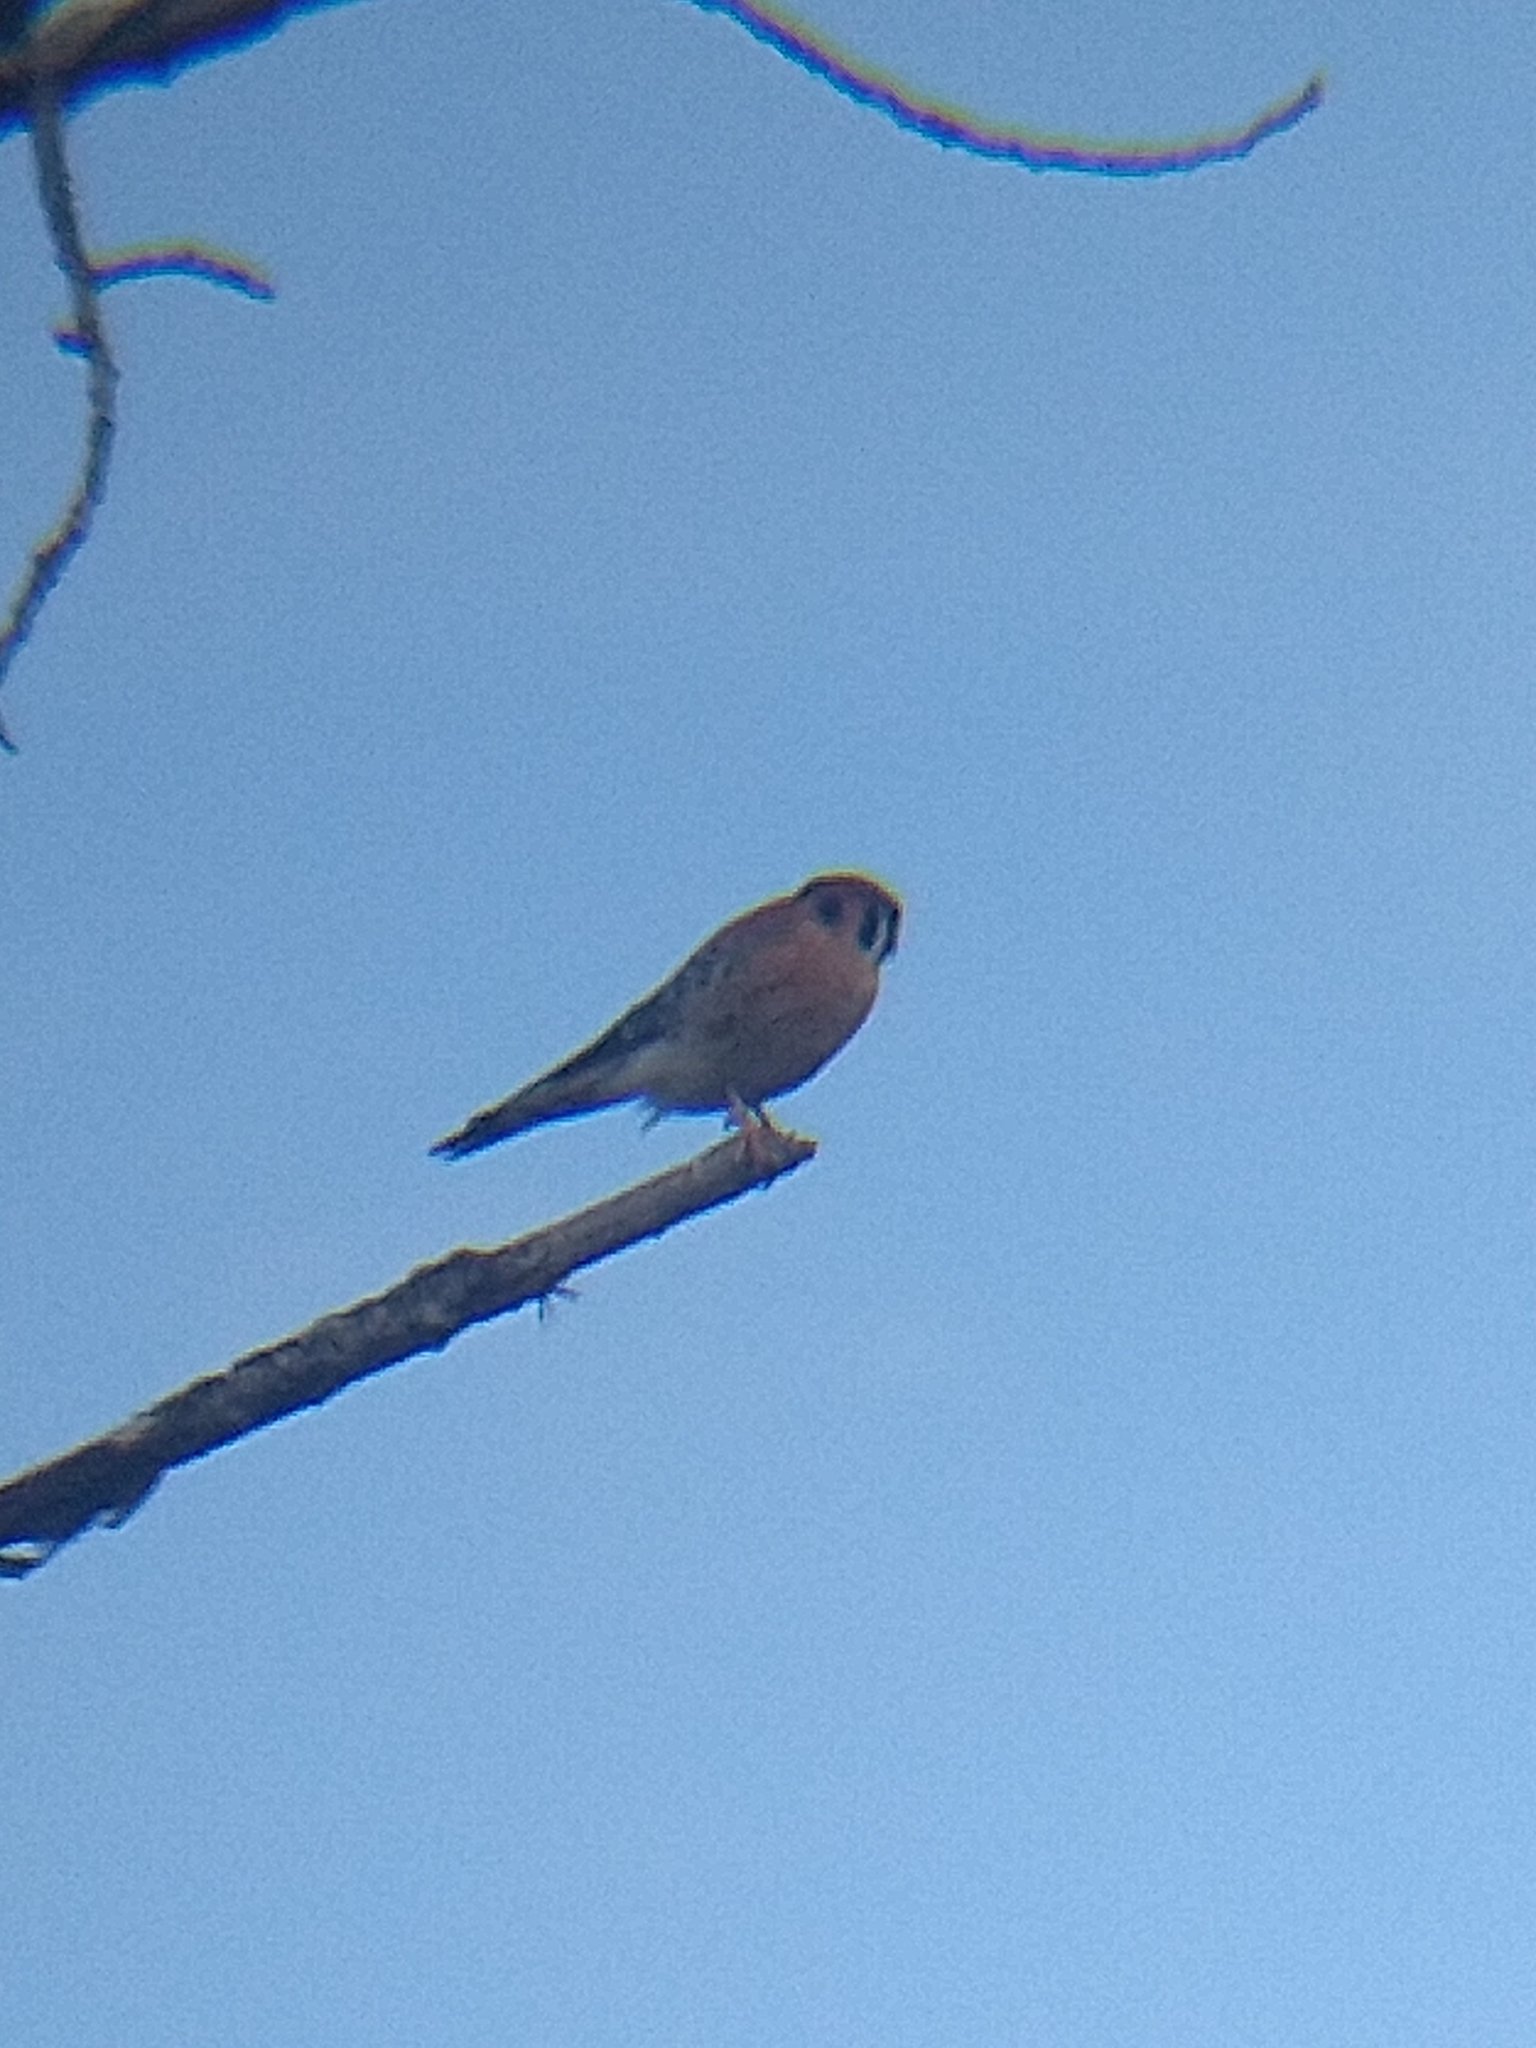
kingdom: Animalia
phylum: Chordata
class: Aves
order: Falconiformes
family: Falconidae
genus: Falco
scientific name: Falco sparverius
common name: American kestrel
